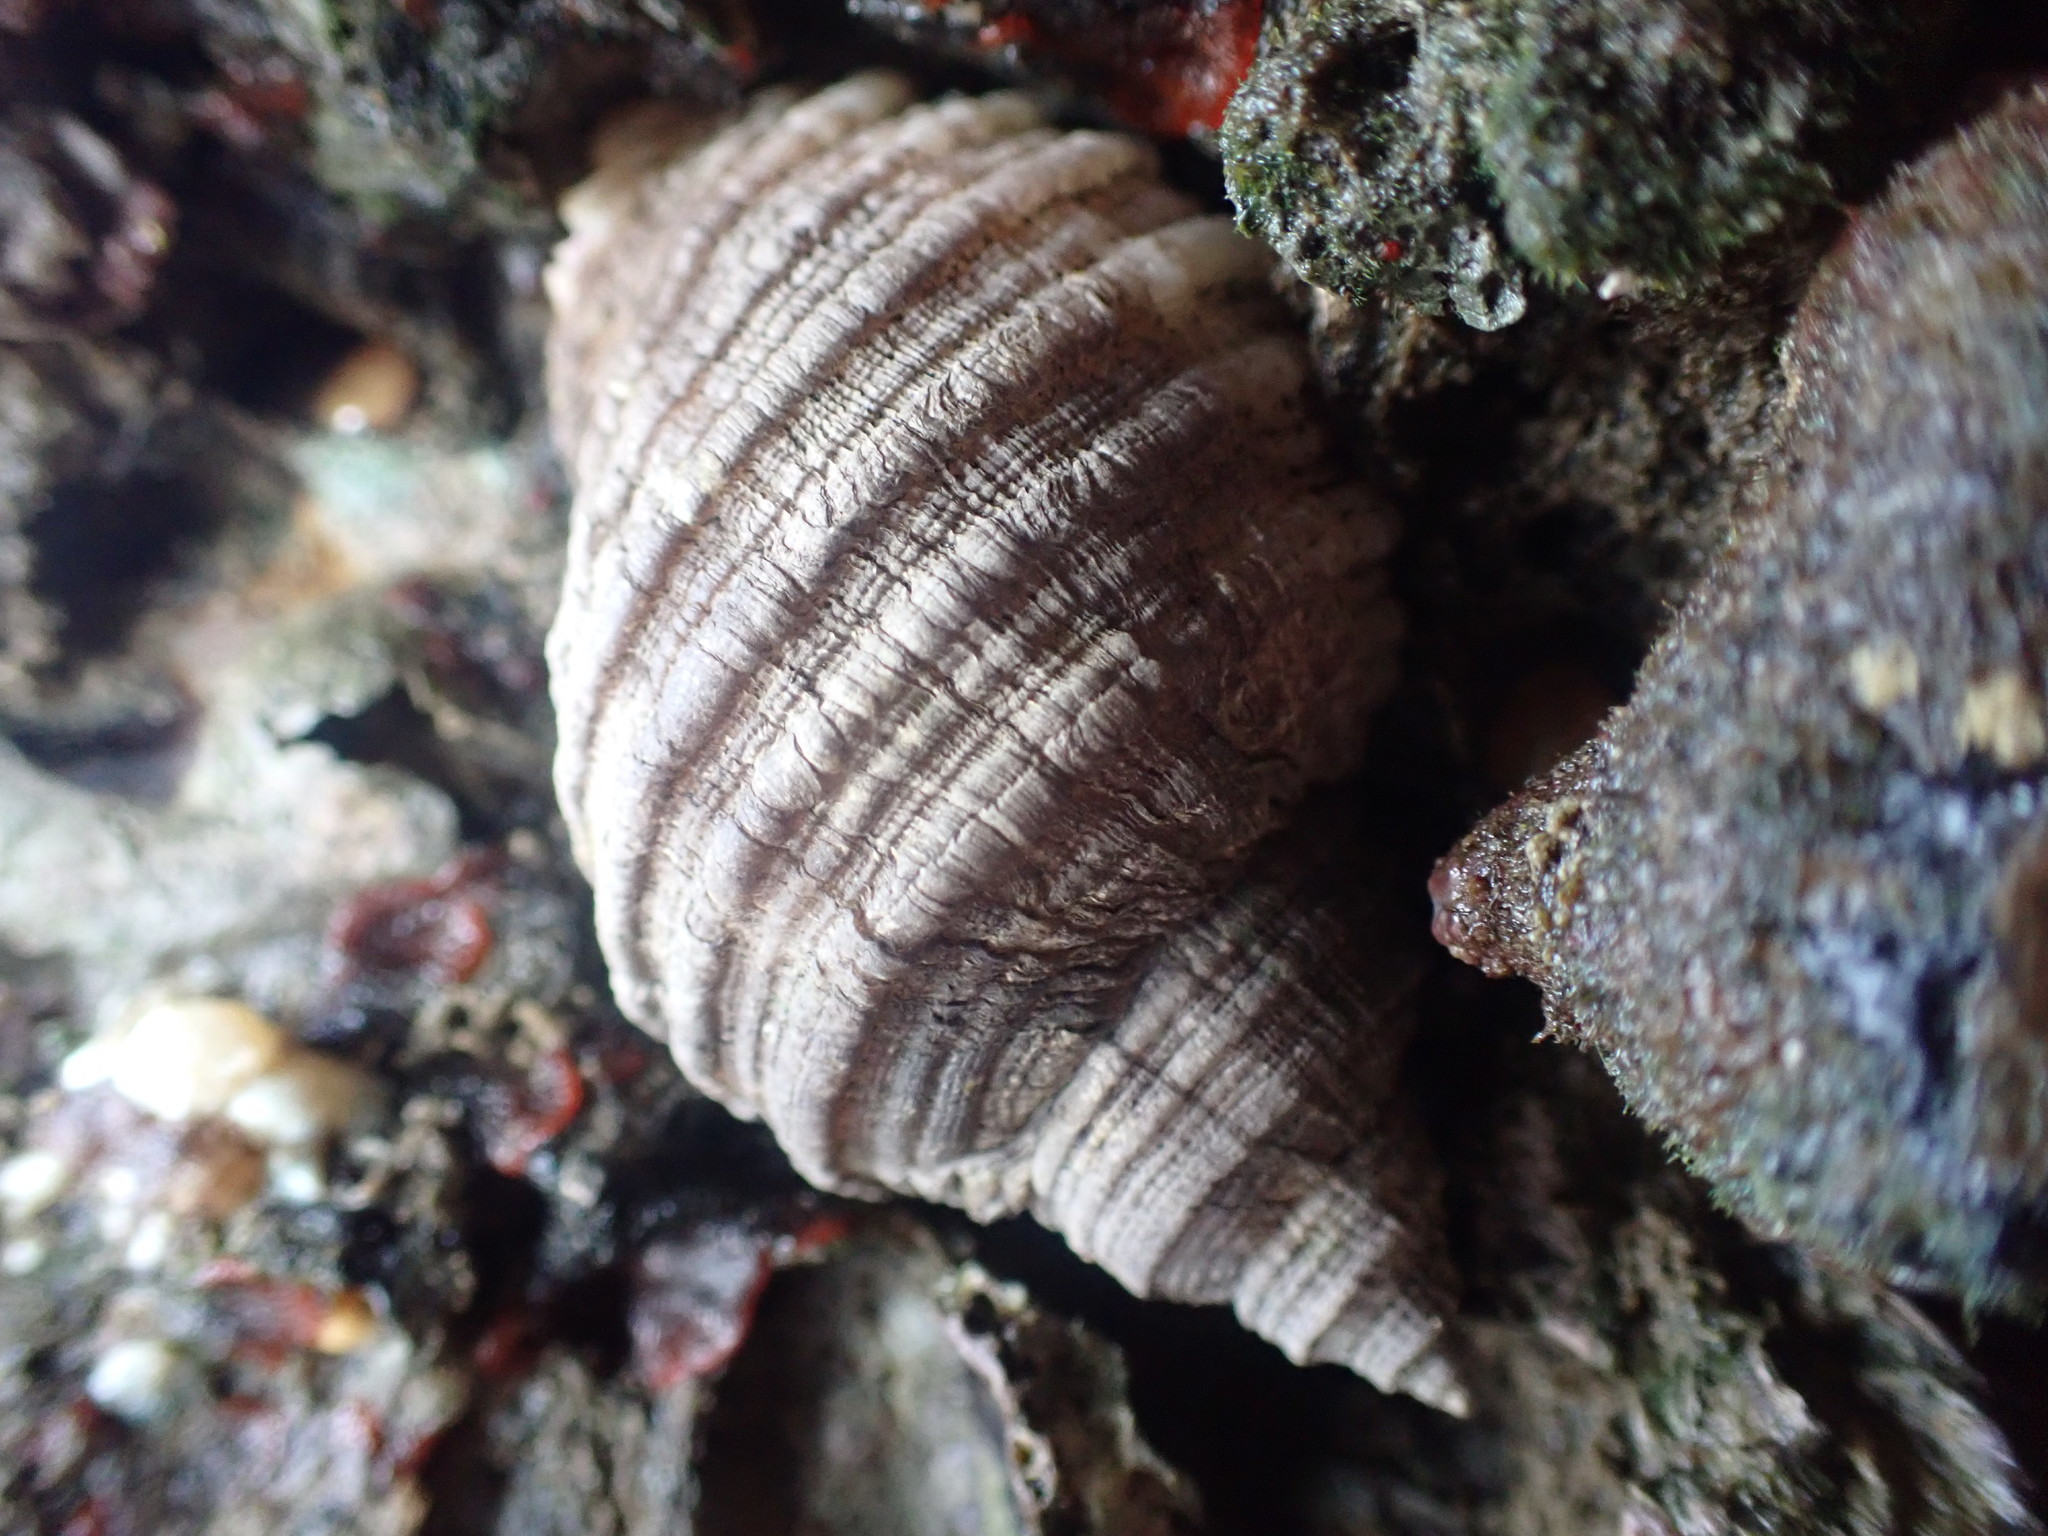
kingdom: Animalia
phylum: Mollusca
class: Gastropoda
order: Neogastropoda
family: Muricidae
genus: Dicathais
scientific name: Dicathais orbita
